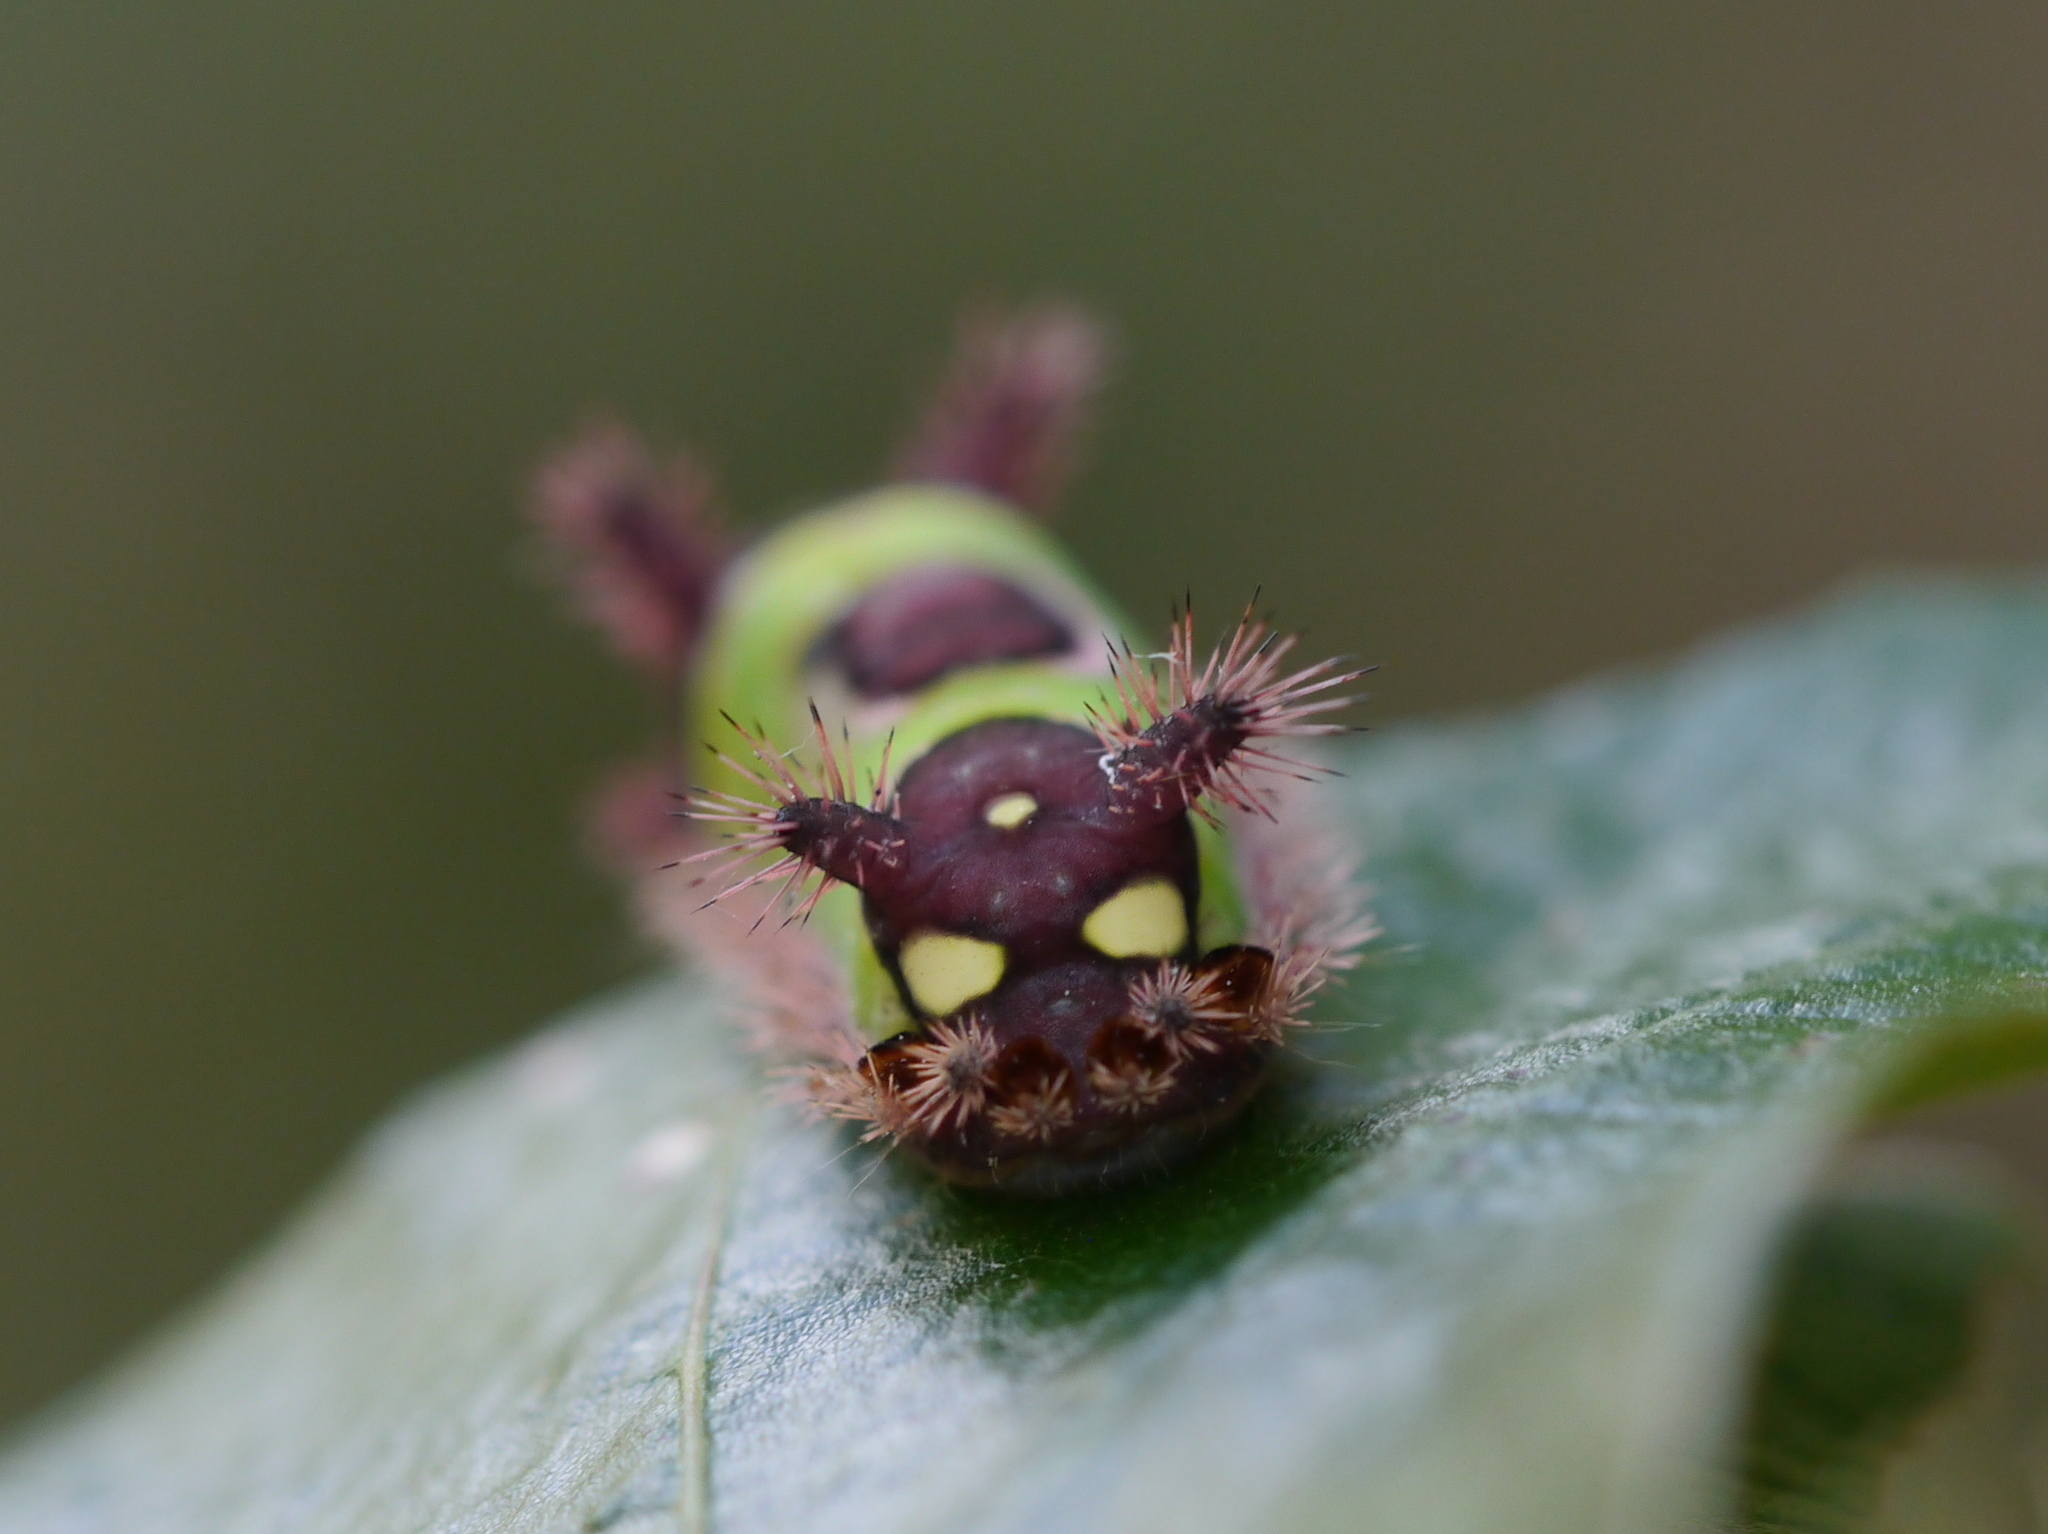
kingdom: Animalia
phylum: Arthropoda
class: Insecta
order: Lepidoptera
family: Limacodidae
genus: Acharia
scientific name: Acharia stimulea
